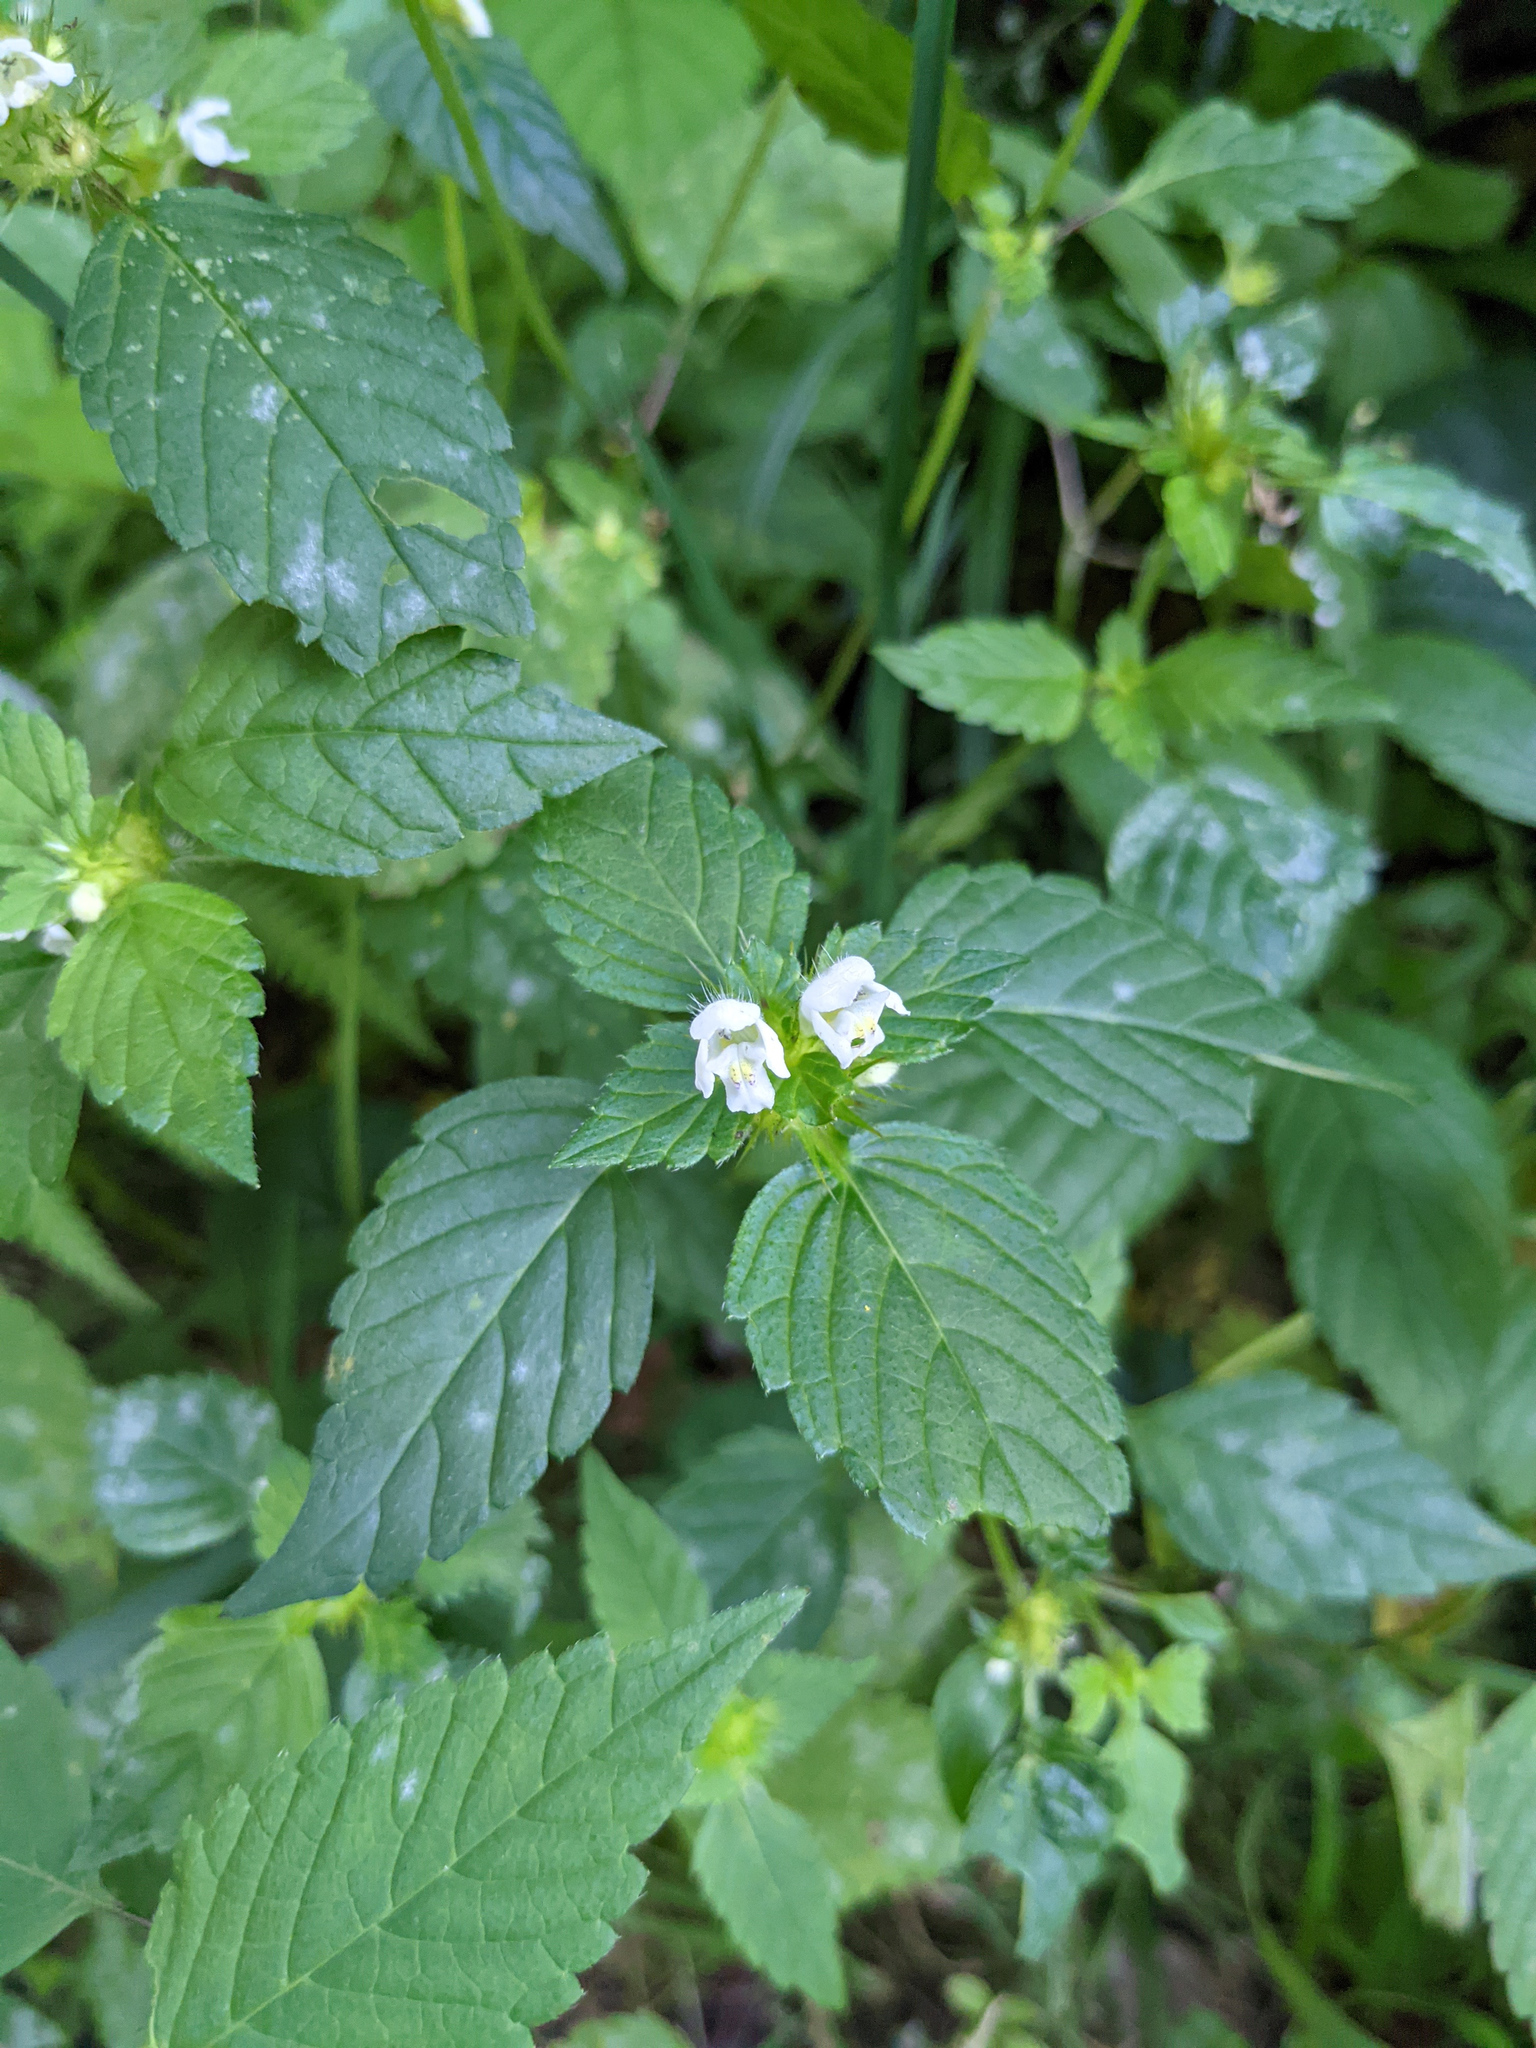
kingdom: Plantae
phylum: Tracheophyta
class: Magnoliopsida
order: Lamiales
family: Lamiaceae
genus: Galeopsis
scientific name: Galeopsis tetrahit
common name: Common hemp-nettle
